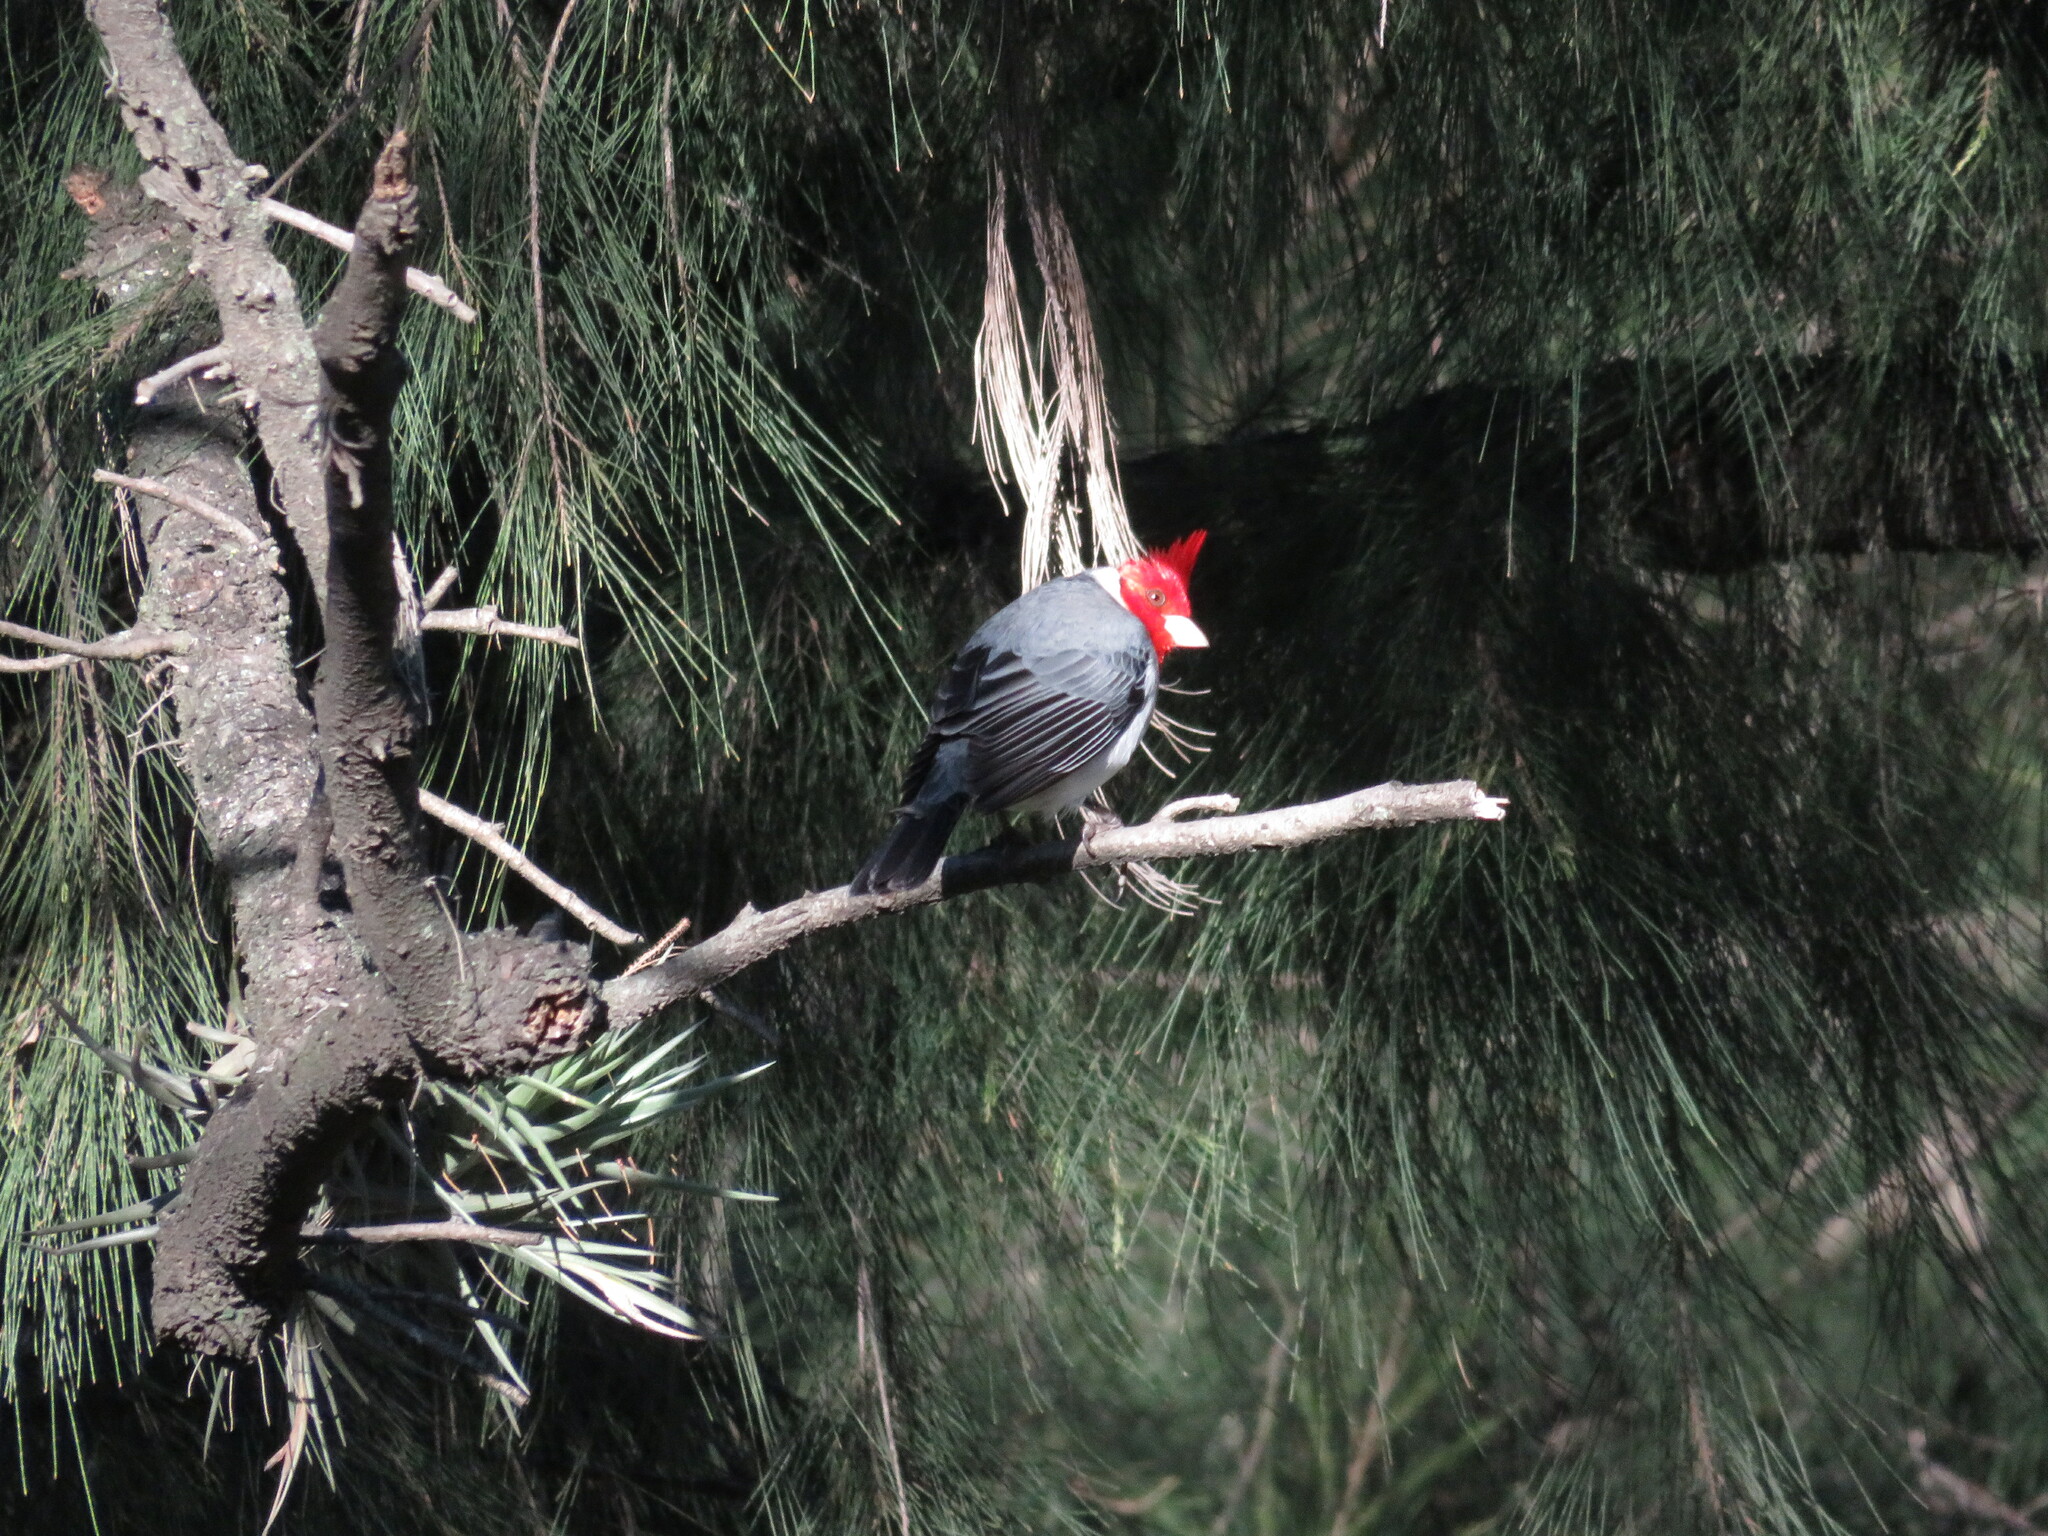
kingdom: Animalia
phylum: Chordata
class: Aves
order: Passeriformes
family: Thraupidae
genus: Paroaria
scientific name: Paroaria coronata
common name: Red-crested cardinal
